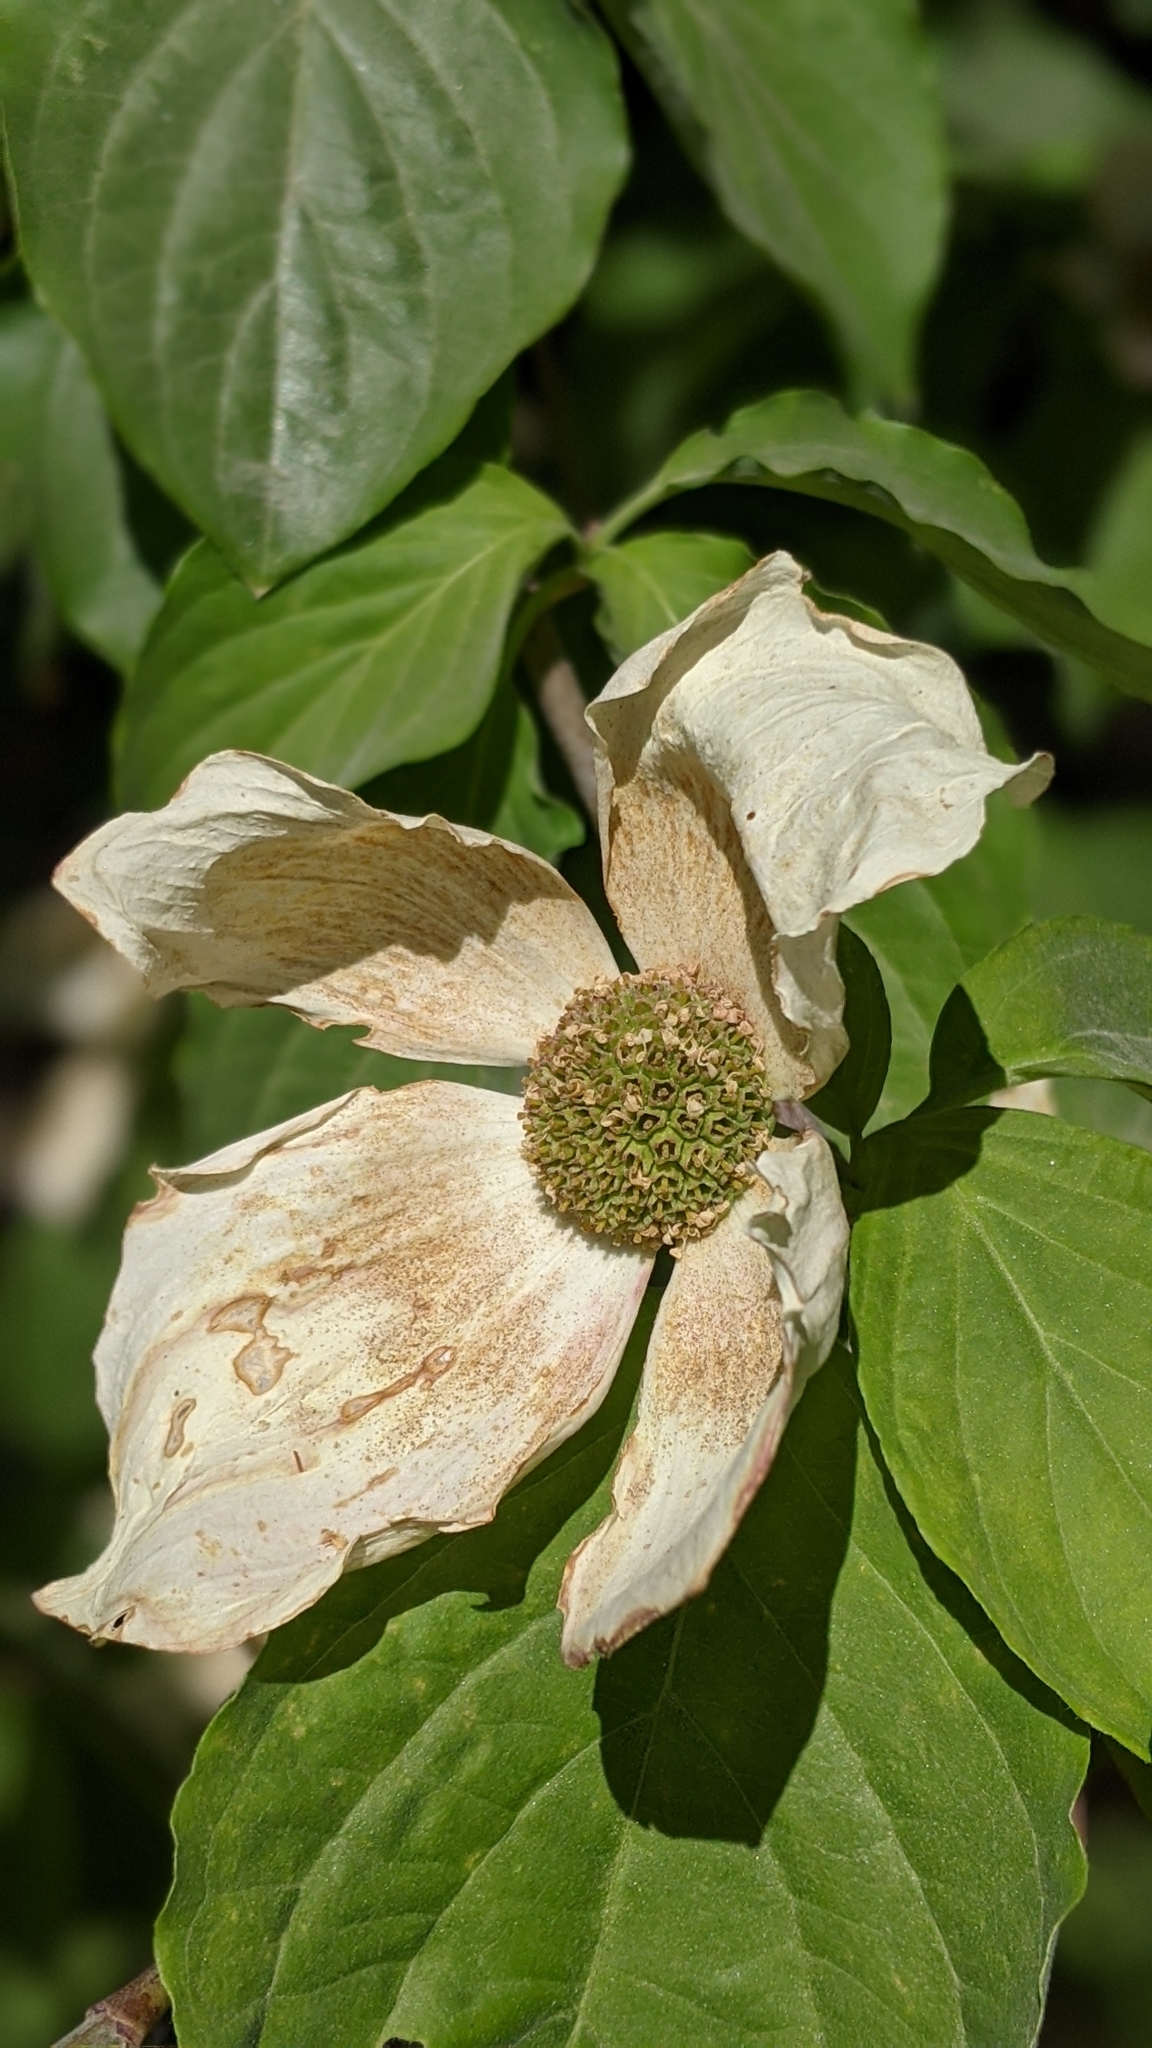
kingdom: Plantae
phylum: Tracheophyta
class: Magnoliopsida
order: Cornales
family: Cornaceae
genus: Cornus
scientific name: Cornus nuttallii
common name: Pacific dogwood
